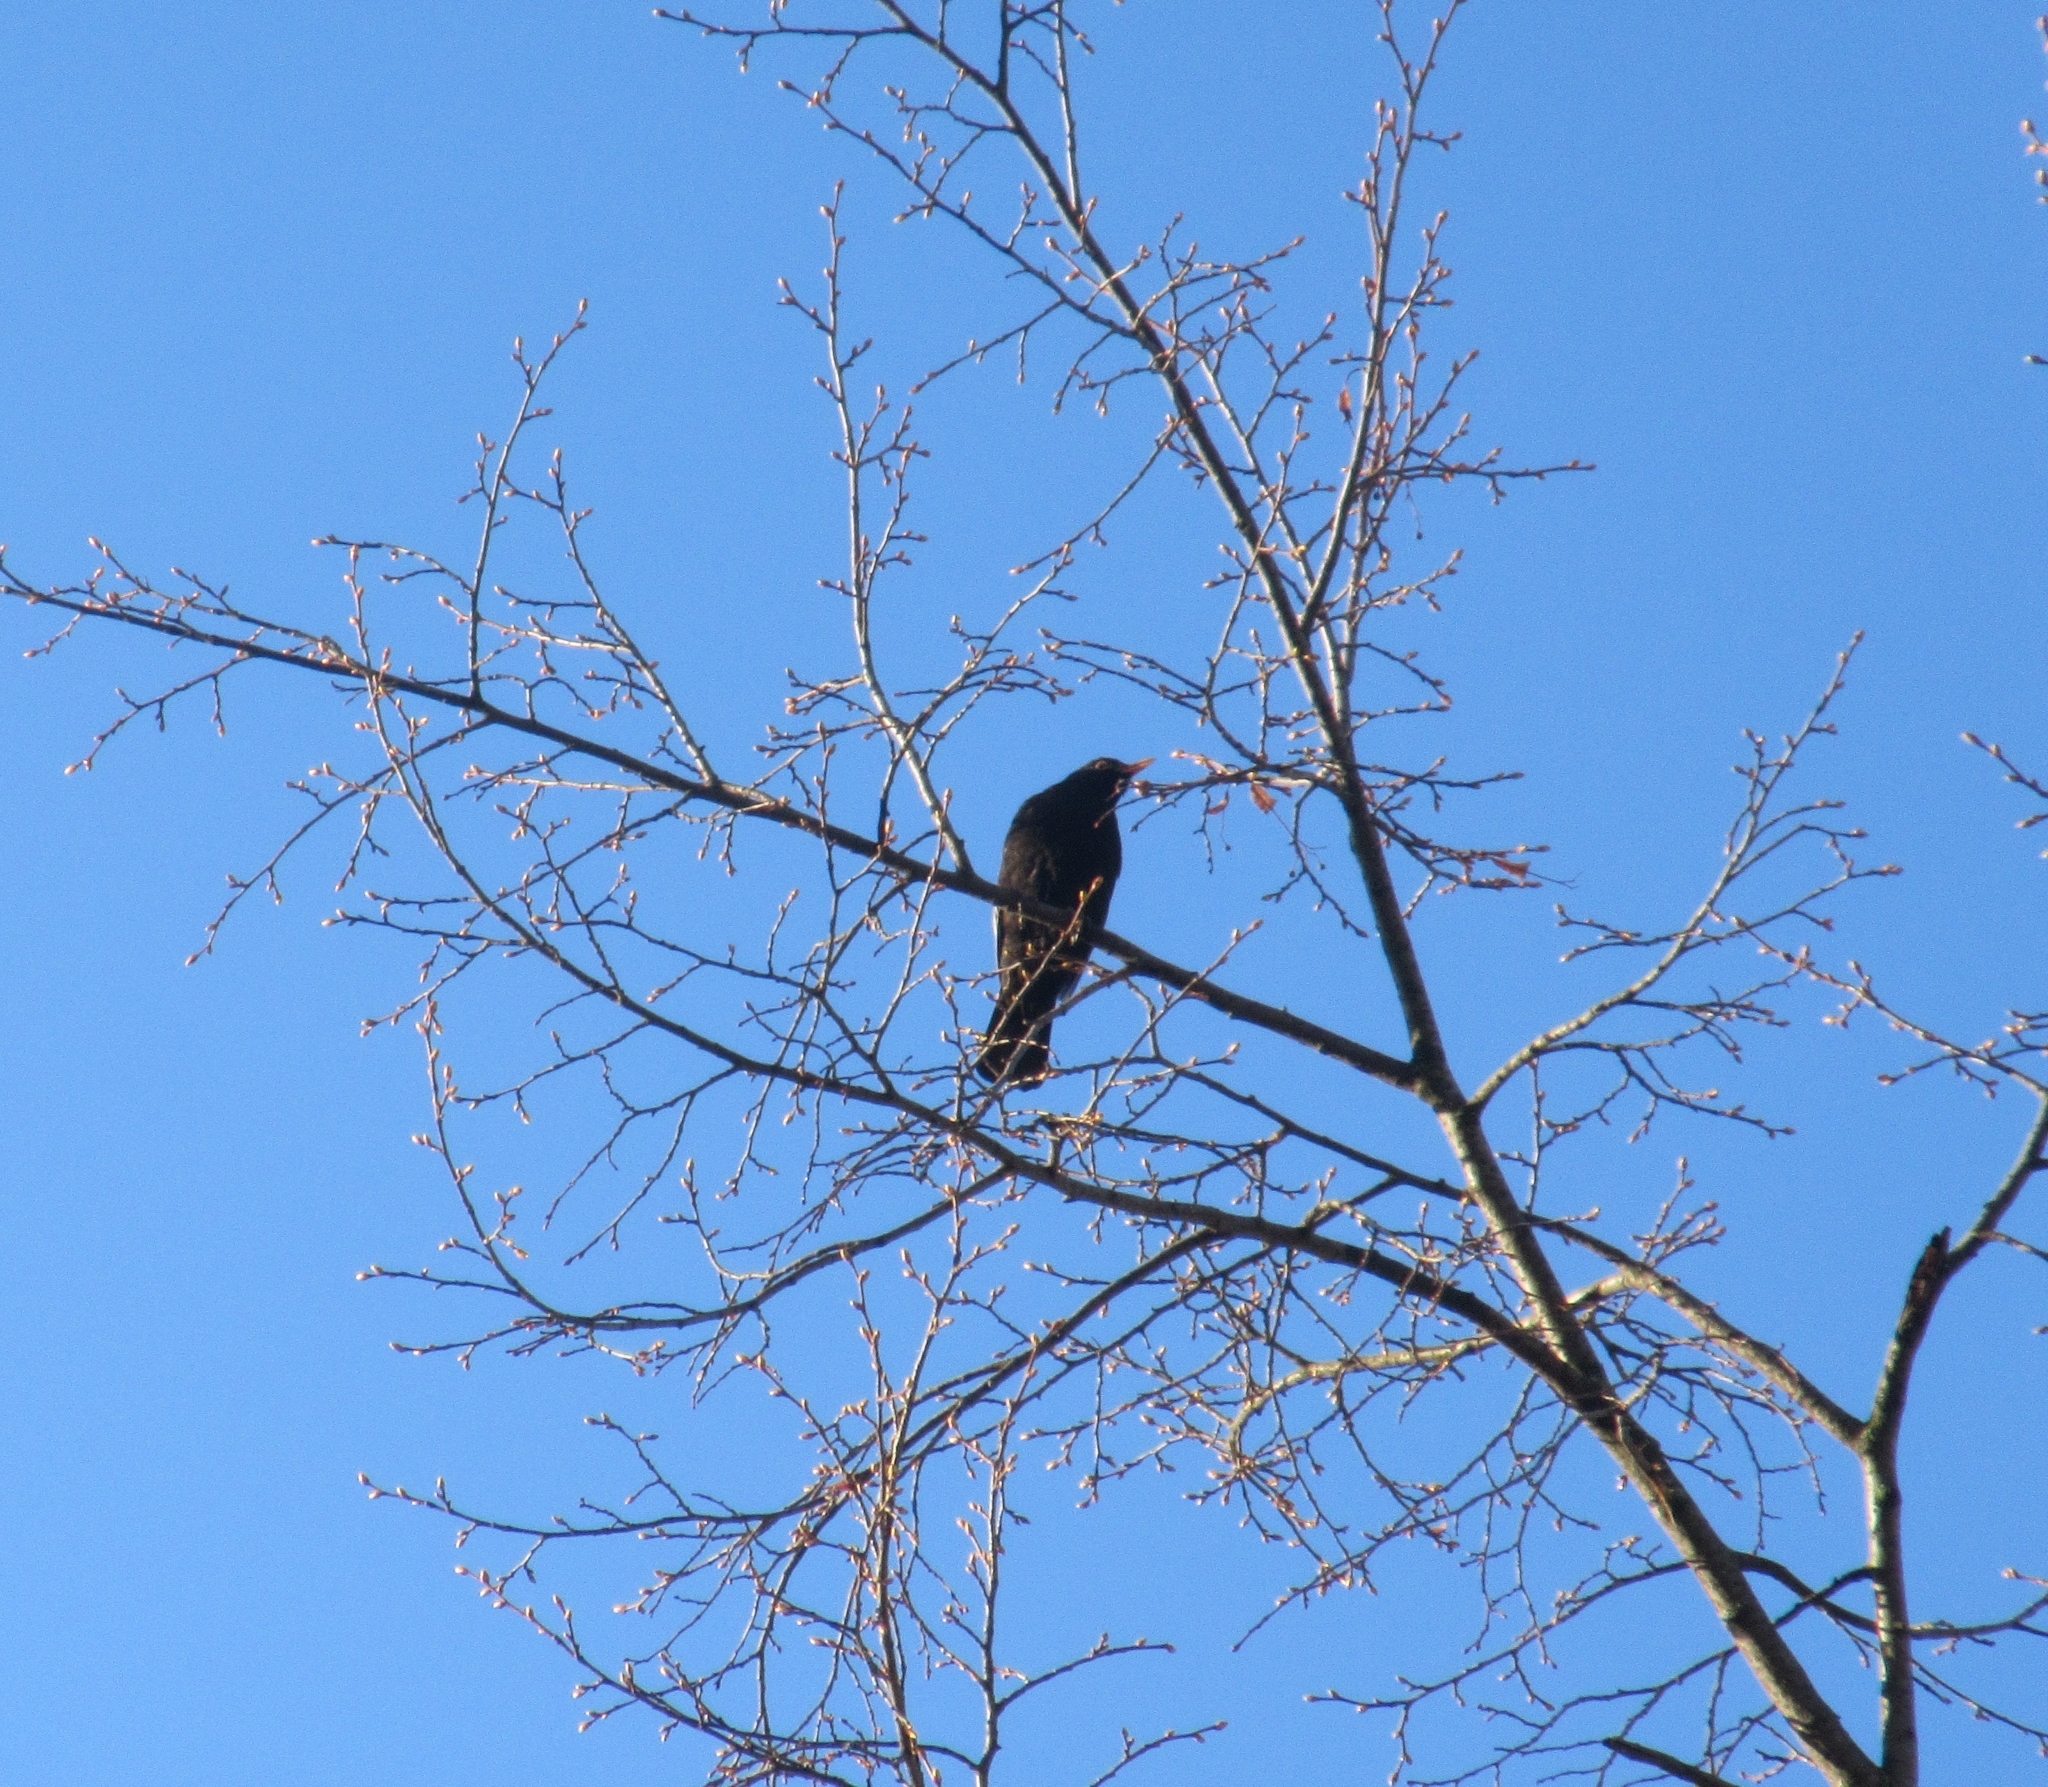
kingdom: Animalia
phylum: Chordata
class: Aves
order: Passeriformes
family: Turdidae
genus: Turdus
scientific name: Turdus merula
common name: Common blackbird
